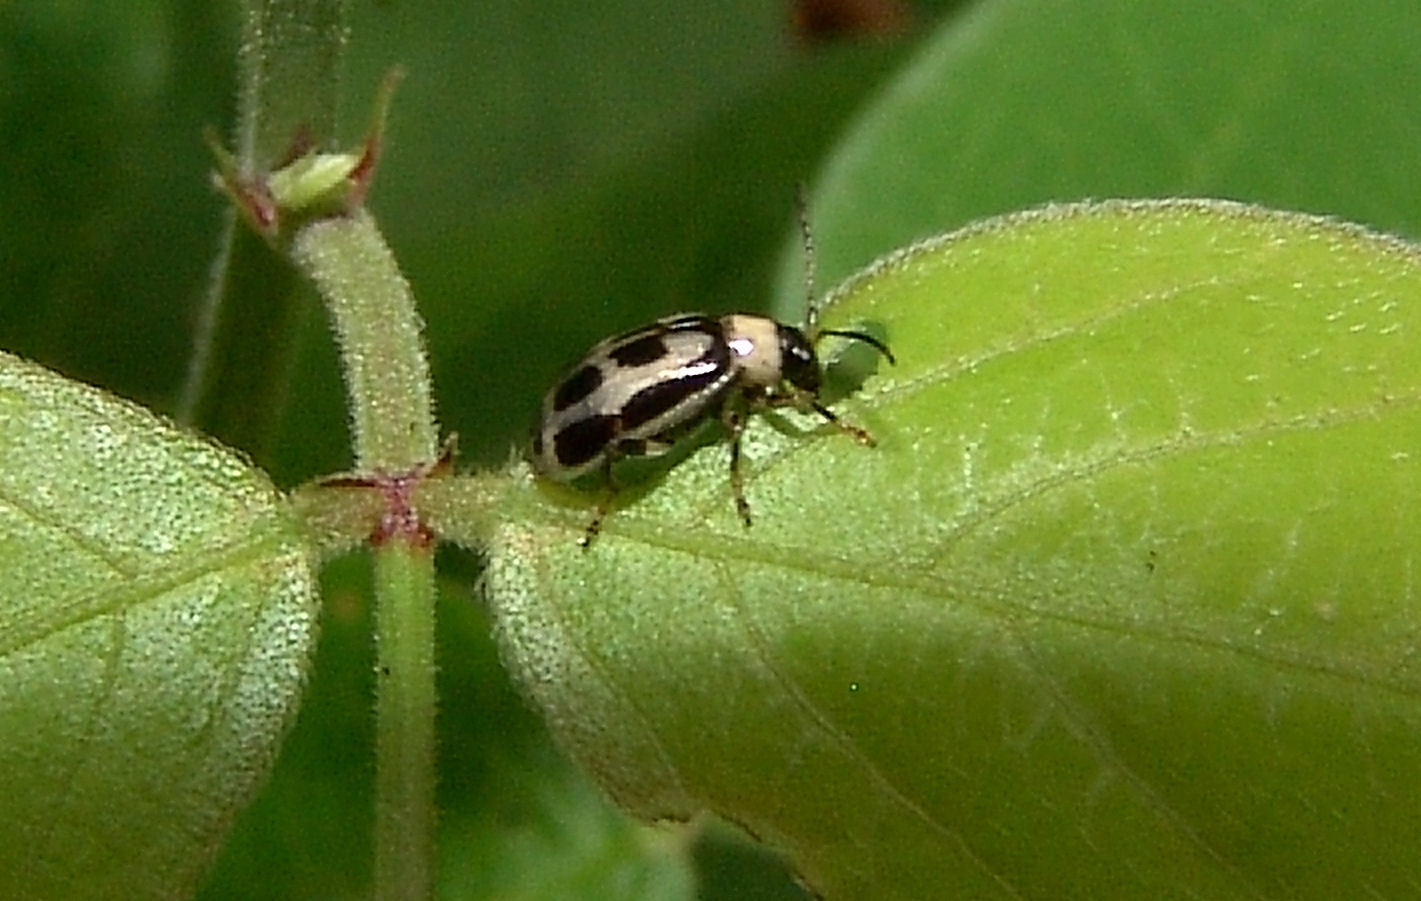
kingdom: Animalia
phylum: Arthropoda
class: Insecta
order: Coleoptera
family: Chrysomelidae
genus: Cerotoma
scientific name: Cerotoma trifurcata
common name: Bean leaf beetle
